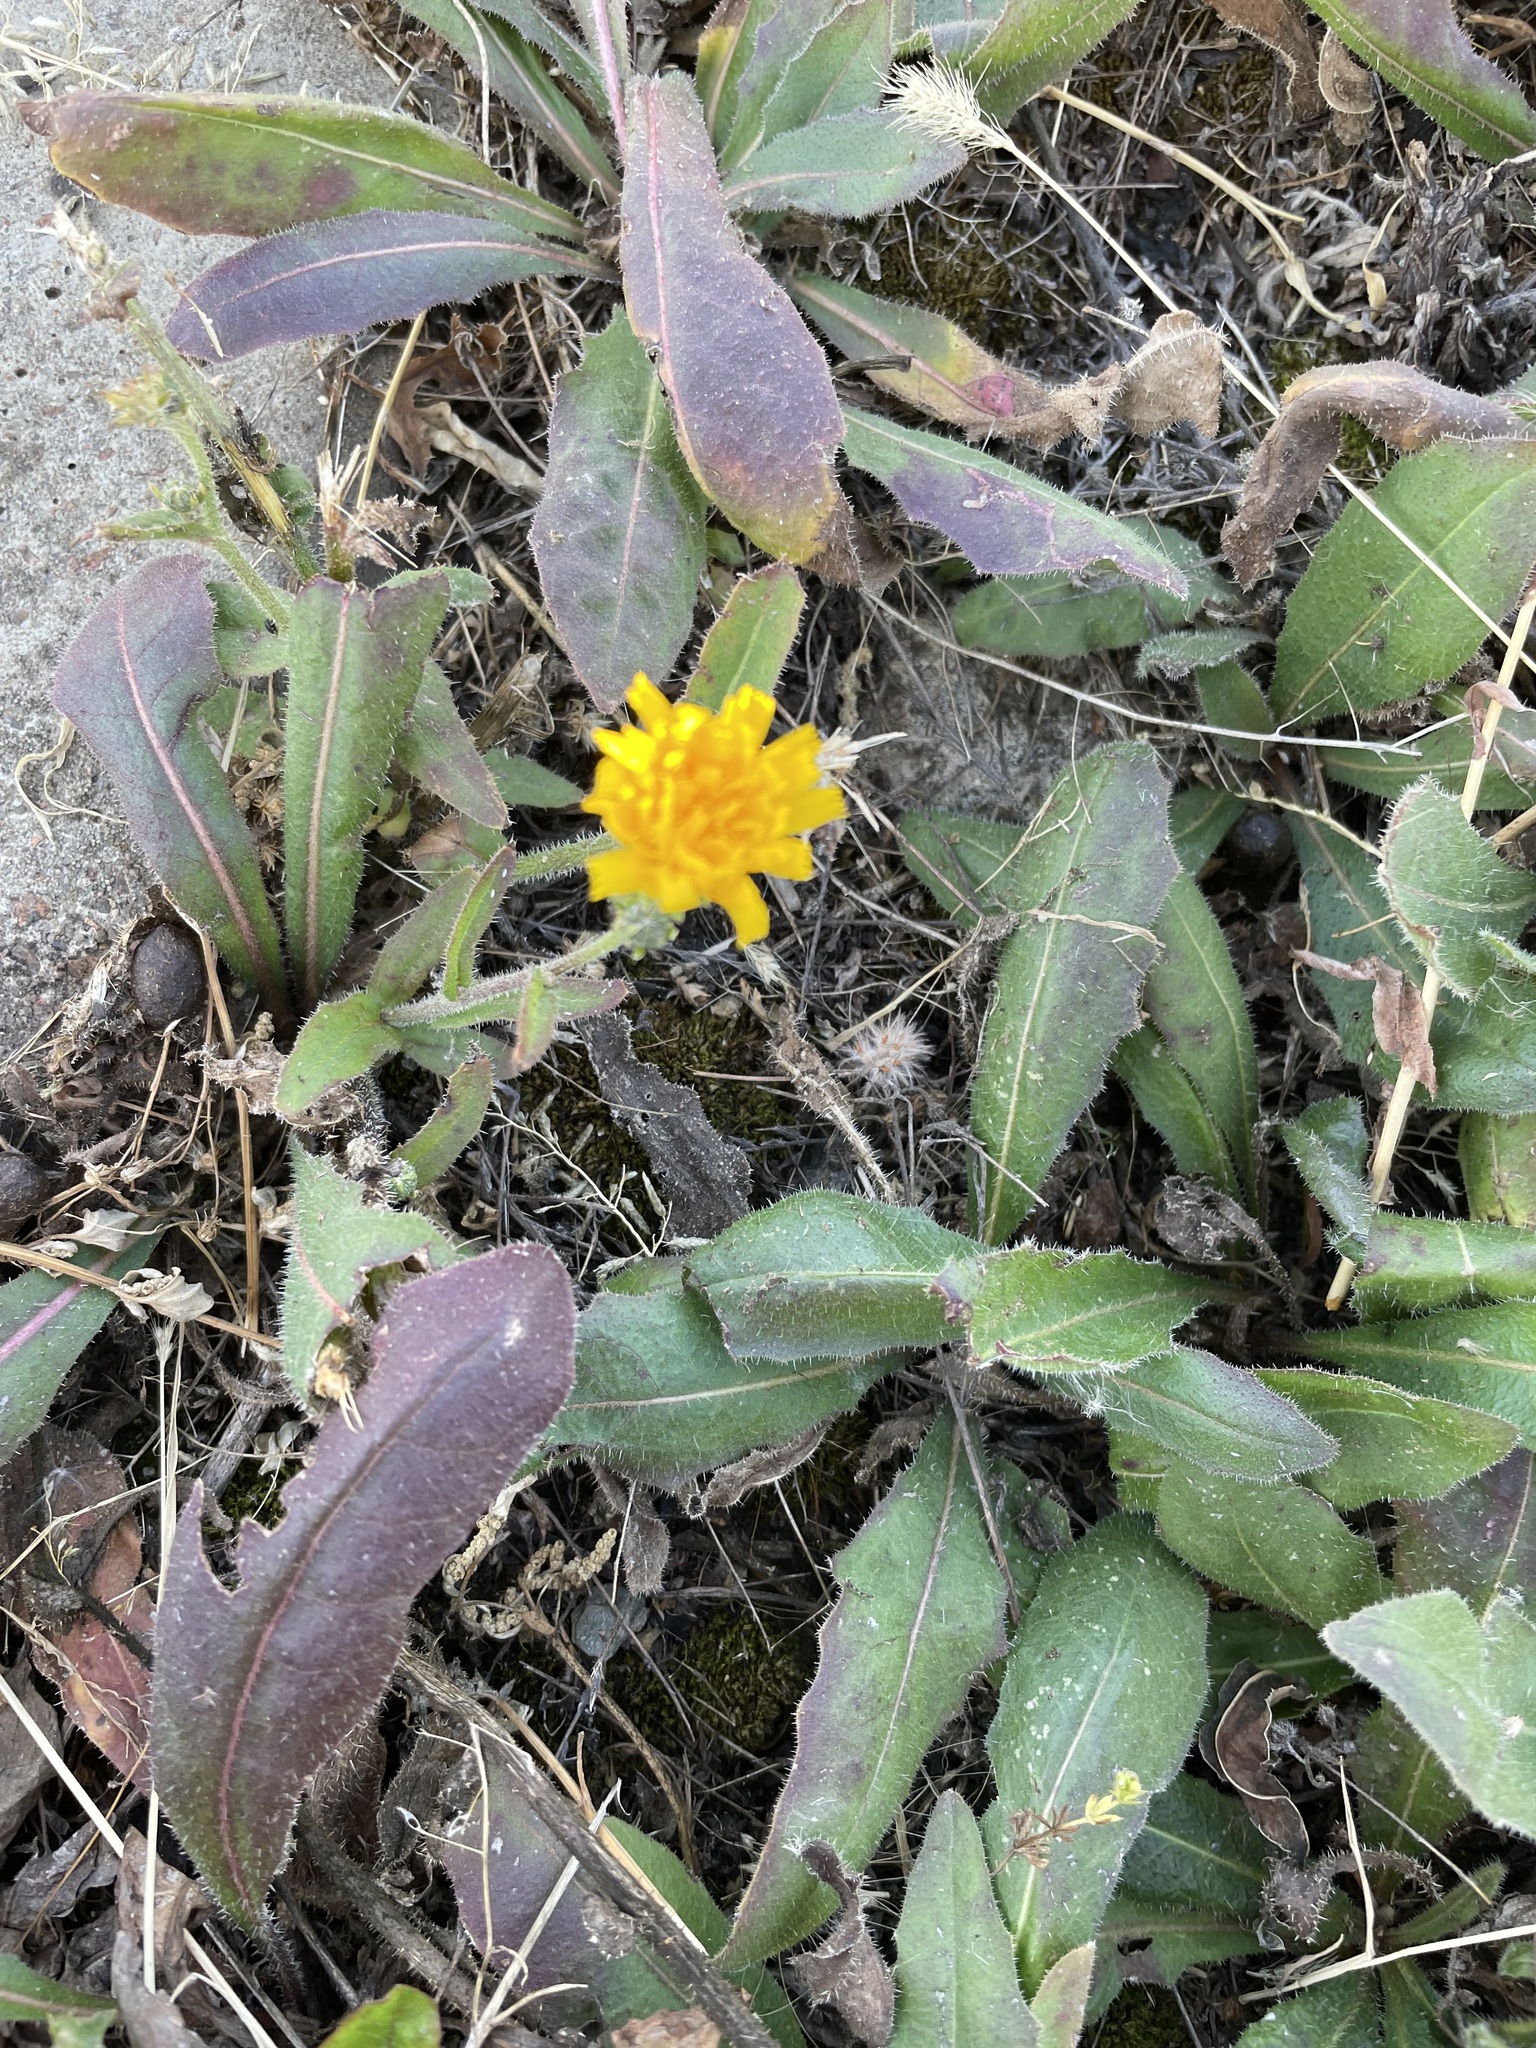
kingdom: Plantae
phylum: Tracheophyta
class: Magnoliopsida
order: Asterales
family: Asteraceae
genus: Picris
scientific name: Picris hieracioides
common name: Hawkweed oxtongue
